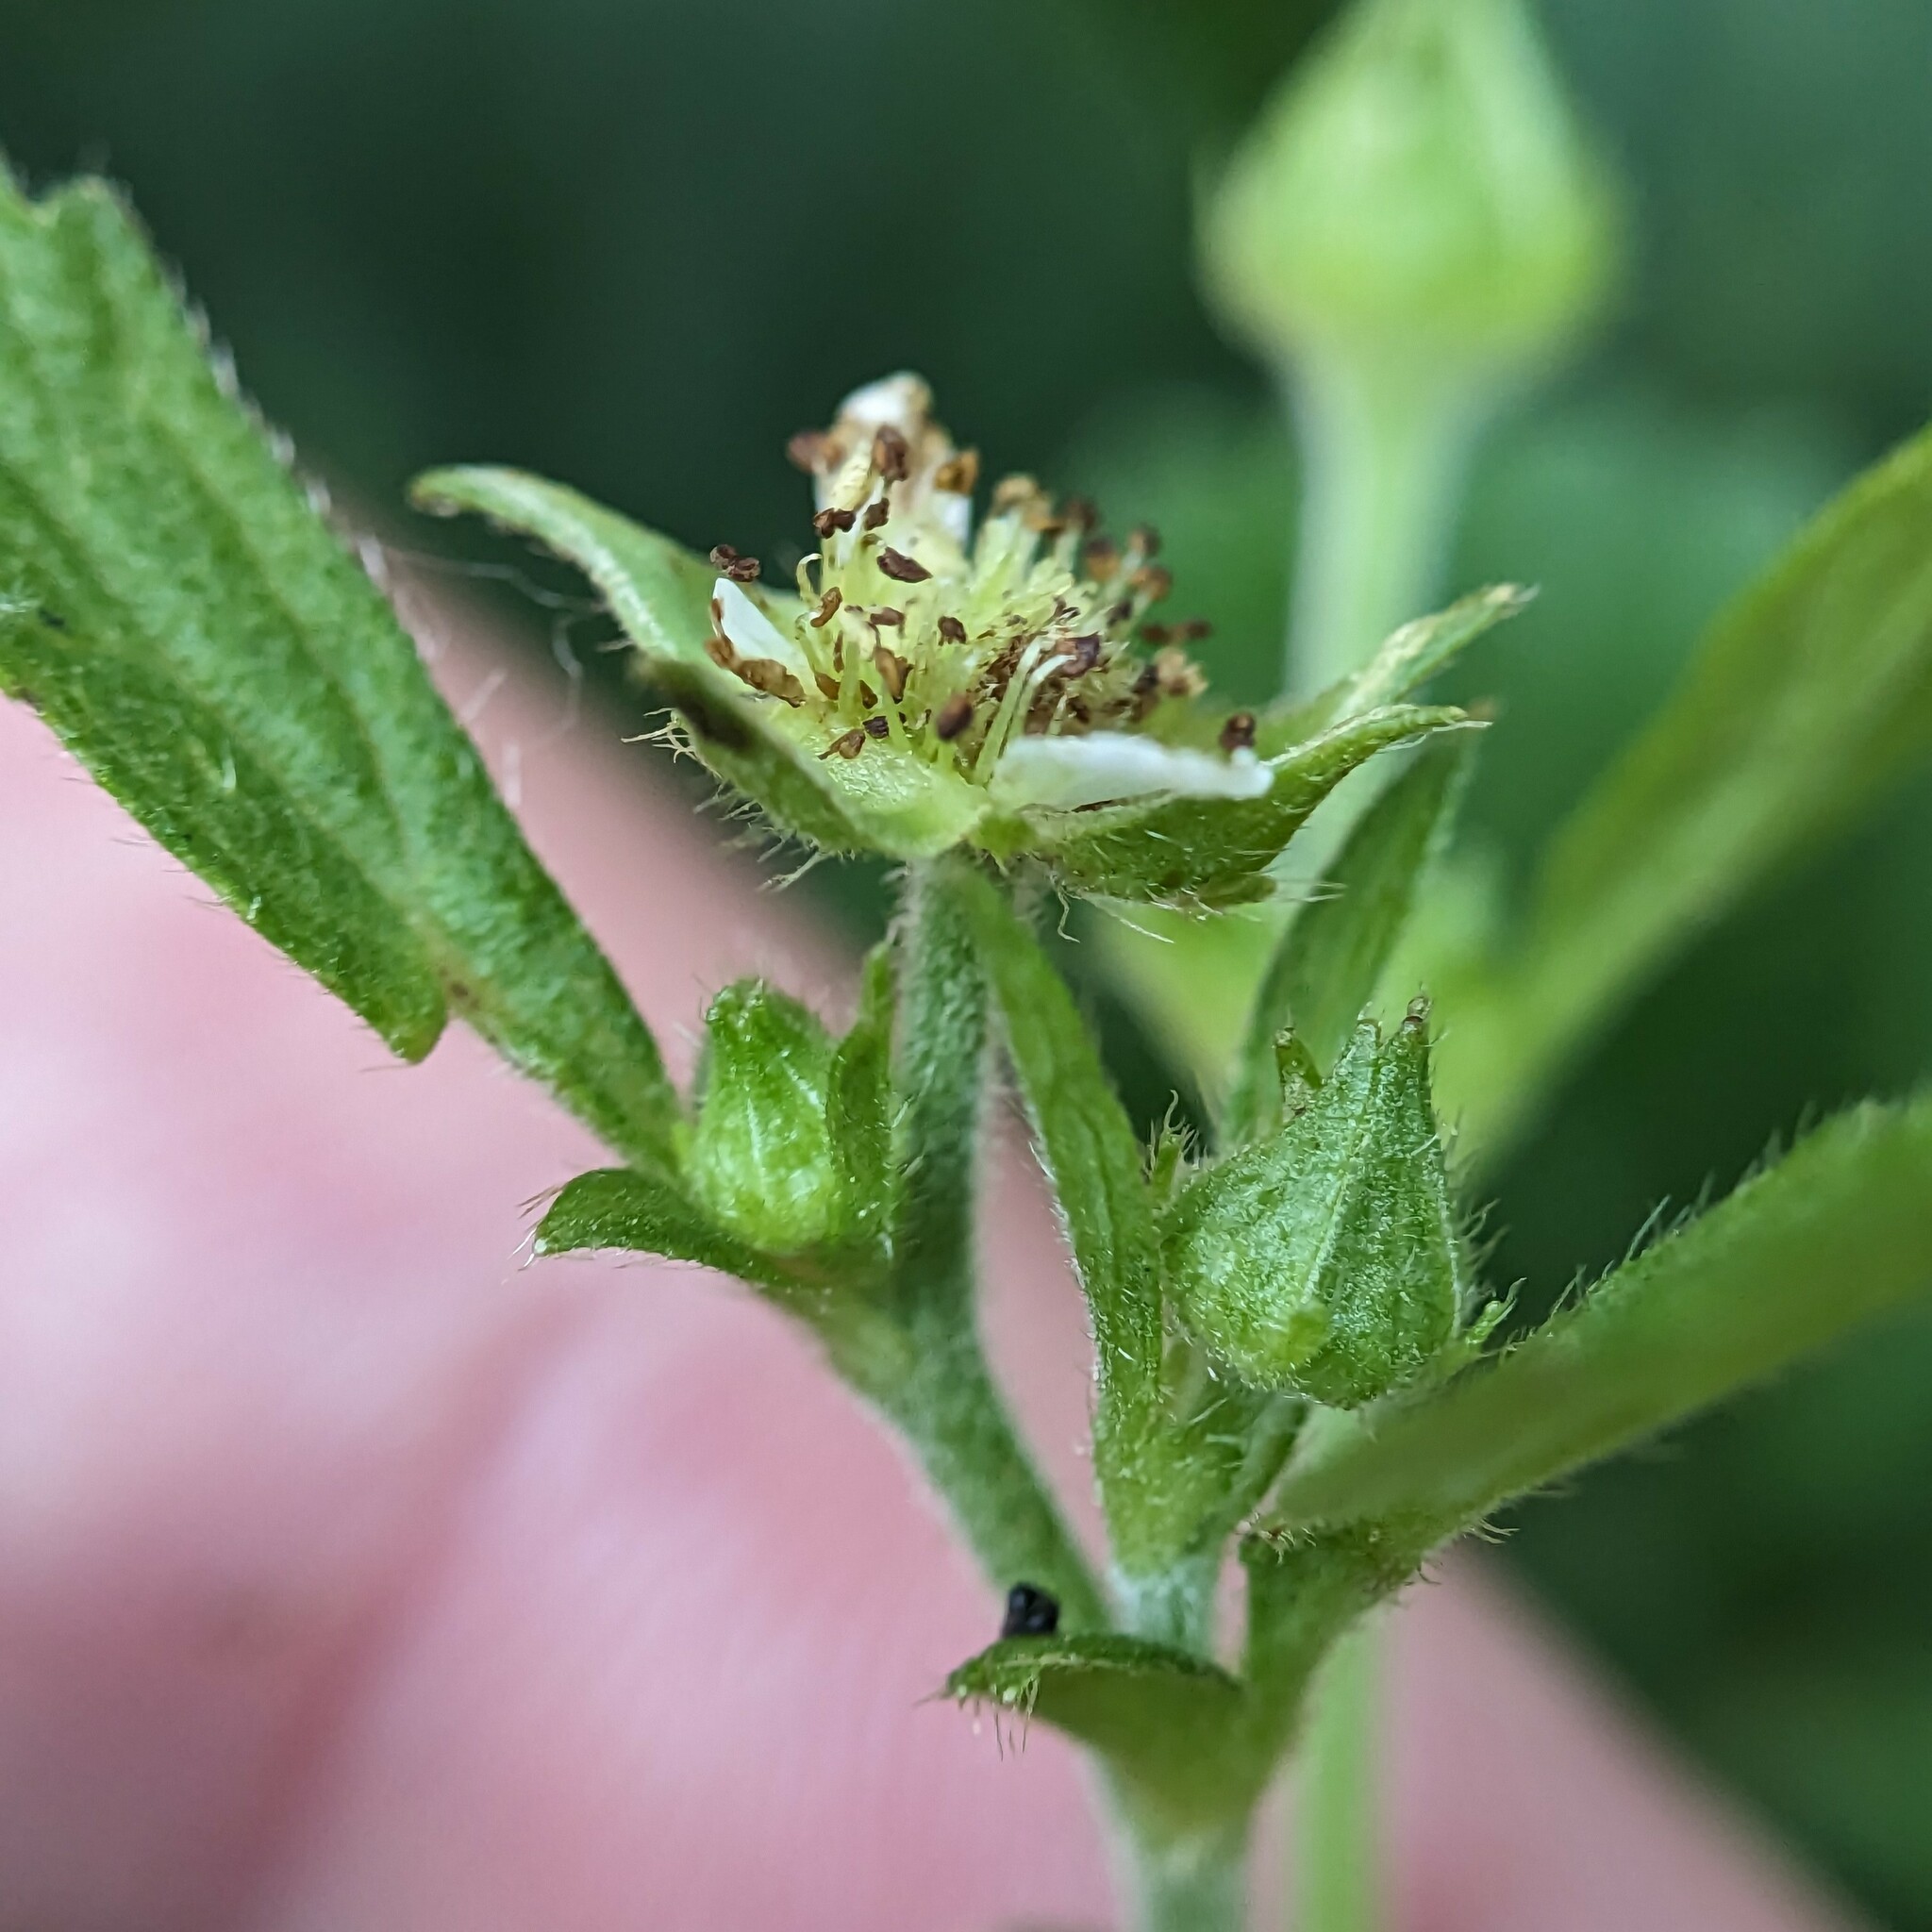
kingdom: Plantae
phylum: Tracheophyta
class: Magnoliopsida
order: Rosales
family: Rosaceae
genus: Geum
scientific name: Geum canadense
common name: White avens
